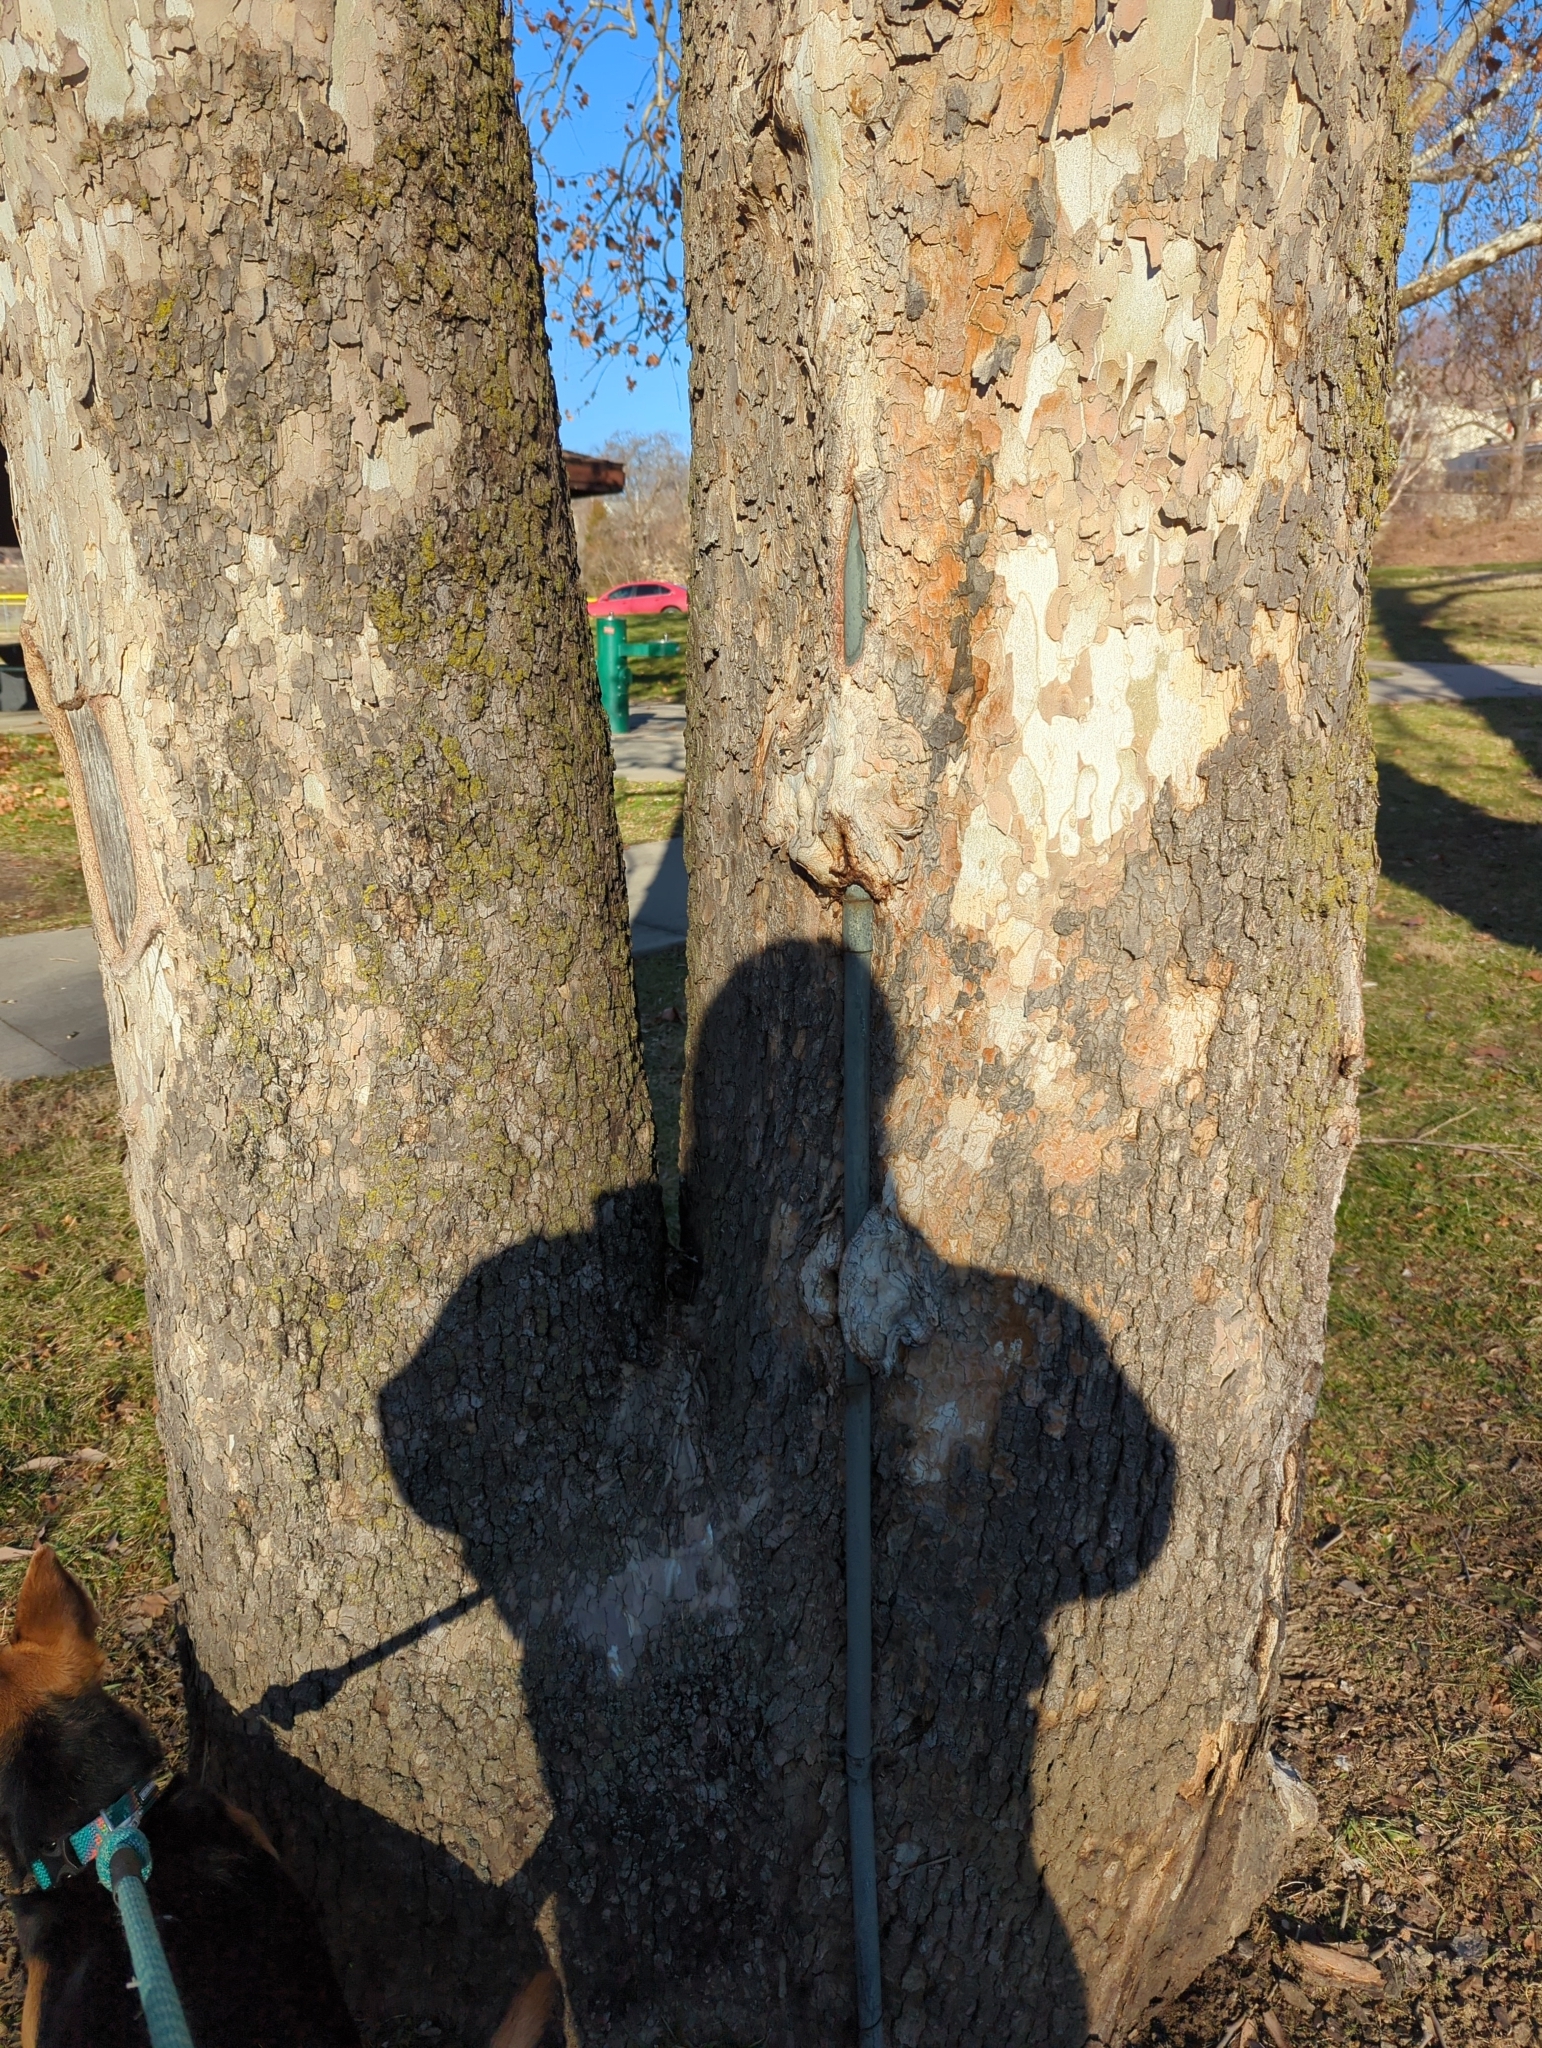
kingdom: Plantae
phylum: Tracheophyta
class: Magnoliopsida
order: Proteales
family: Platanaceae
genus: Platanus
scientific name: Platanus occidentalis
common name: American sycamore
